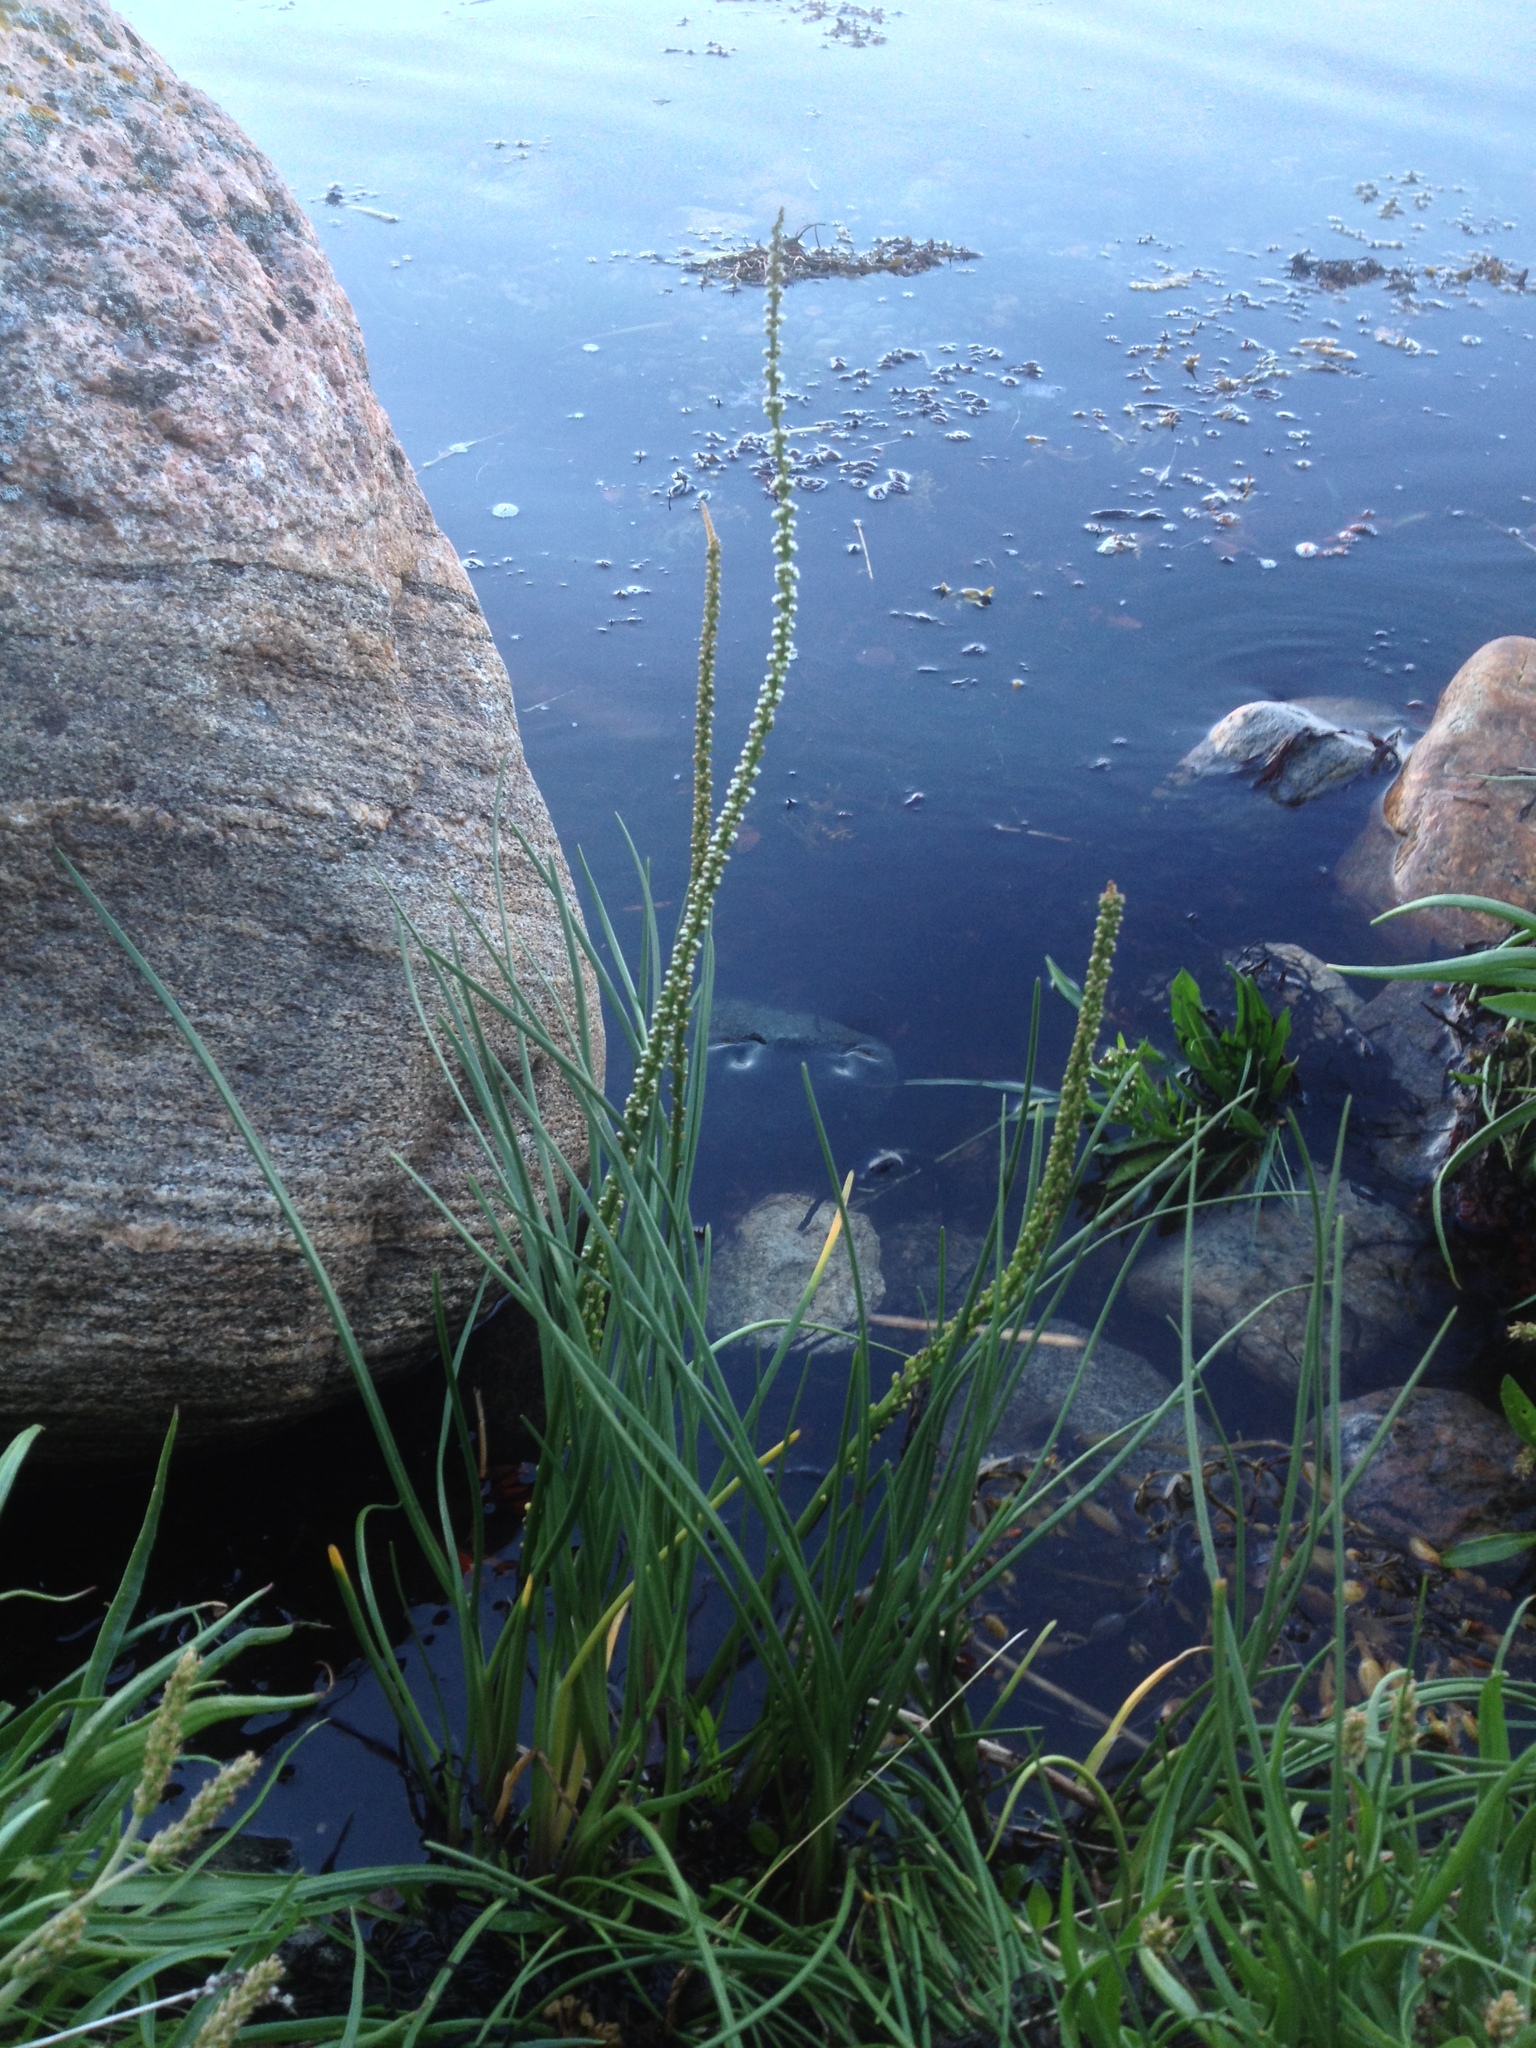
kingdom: Plantae
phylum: Tracheophyta
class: Liliopsida
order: Alismatales
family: Juncaginaceae
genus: Triglochin
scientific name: Triglochin maritima
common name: Sea arrowgrass
